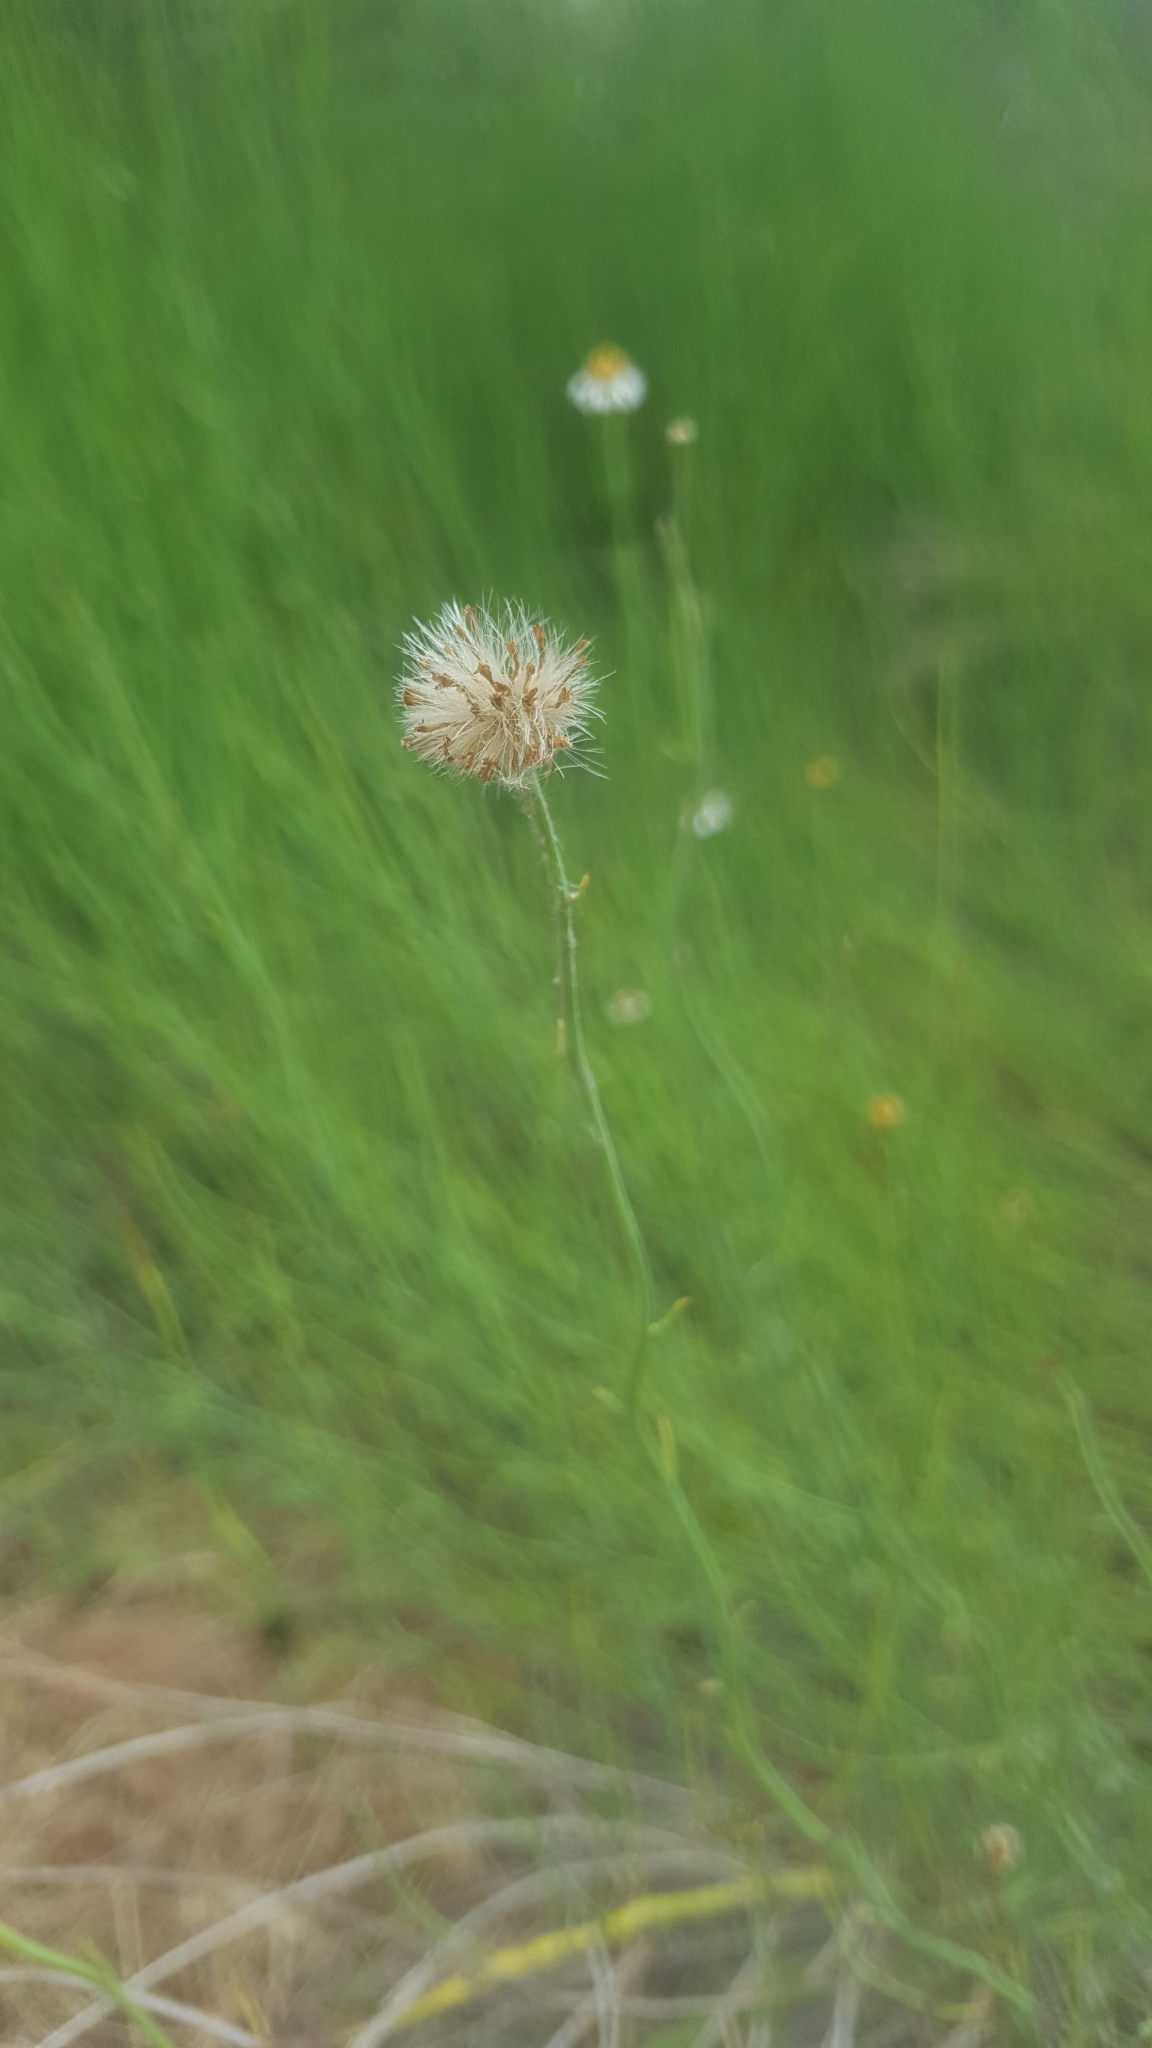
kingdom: Plantae
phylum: Tracheophyta
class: Magnoliopsida
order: Asterales
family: Asteraceae
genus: Chloracantha
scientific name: Chloracantha spinosa
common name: Mexican devilweed
